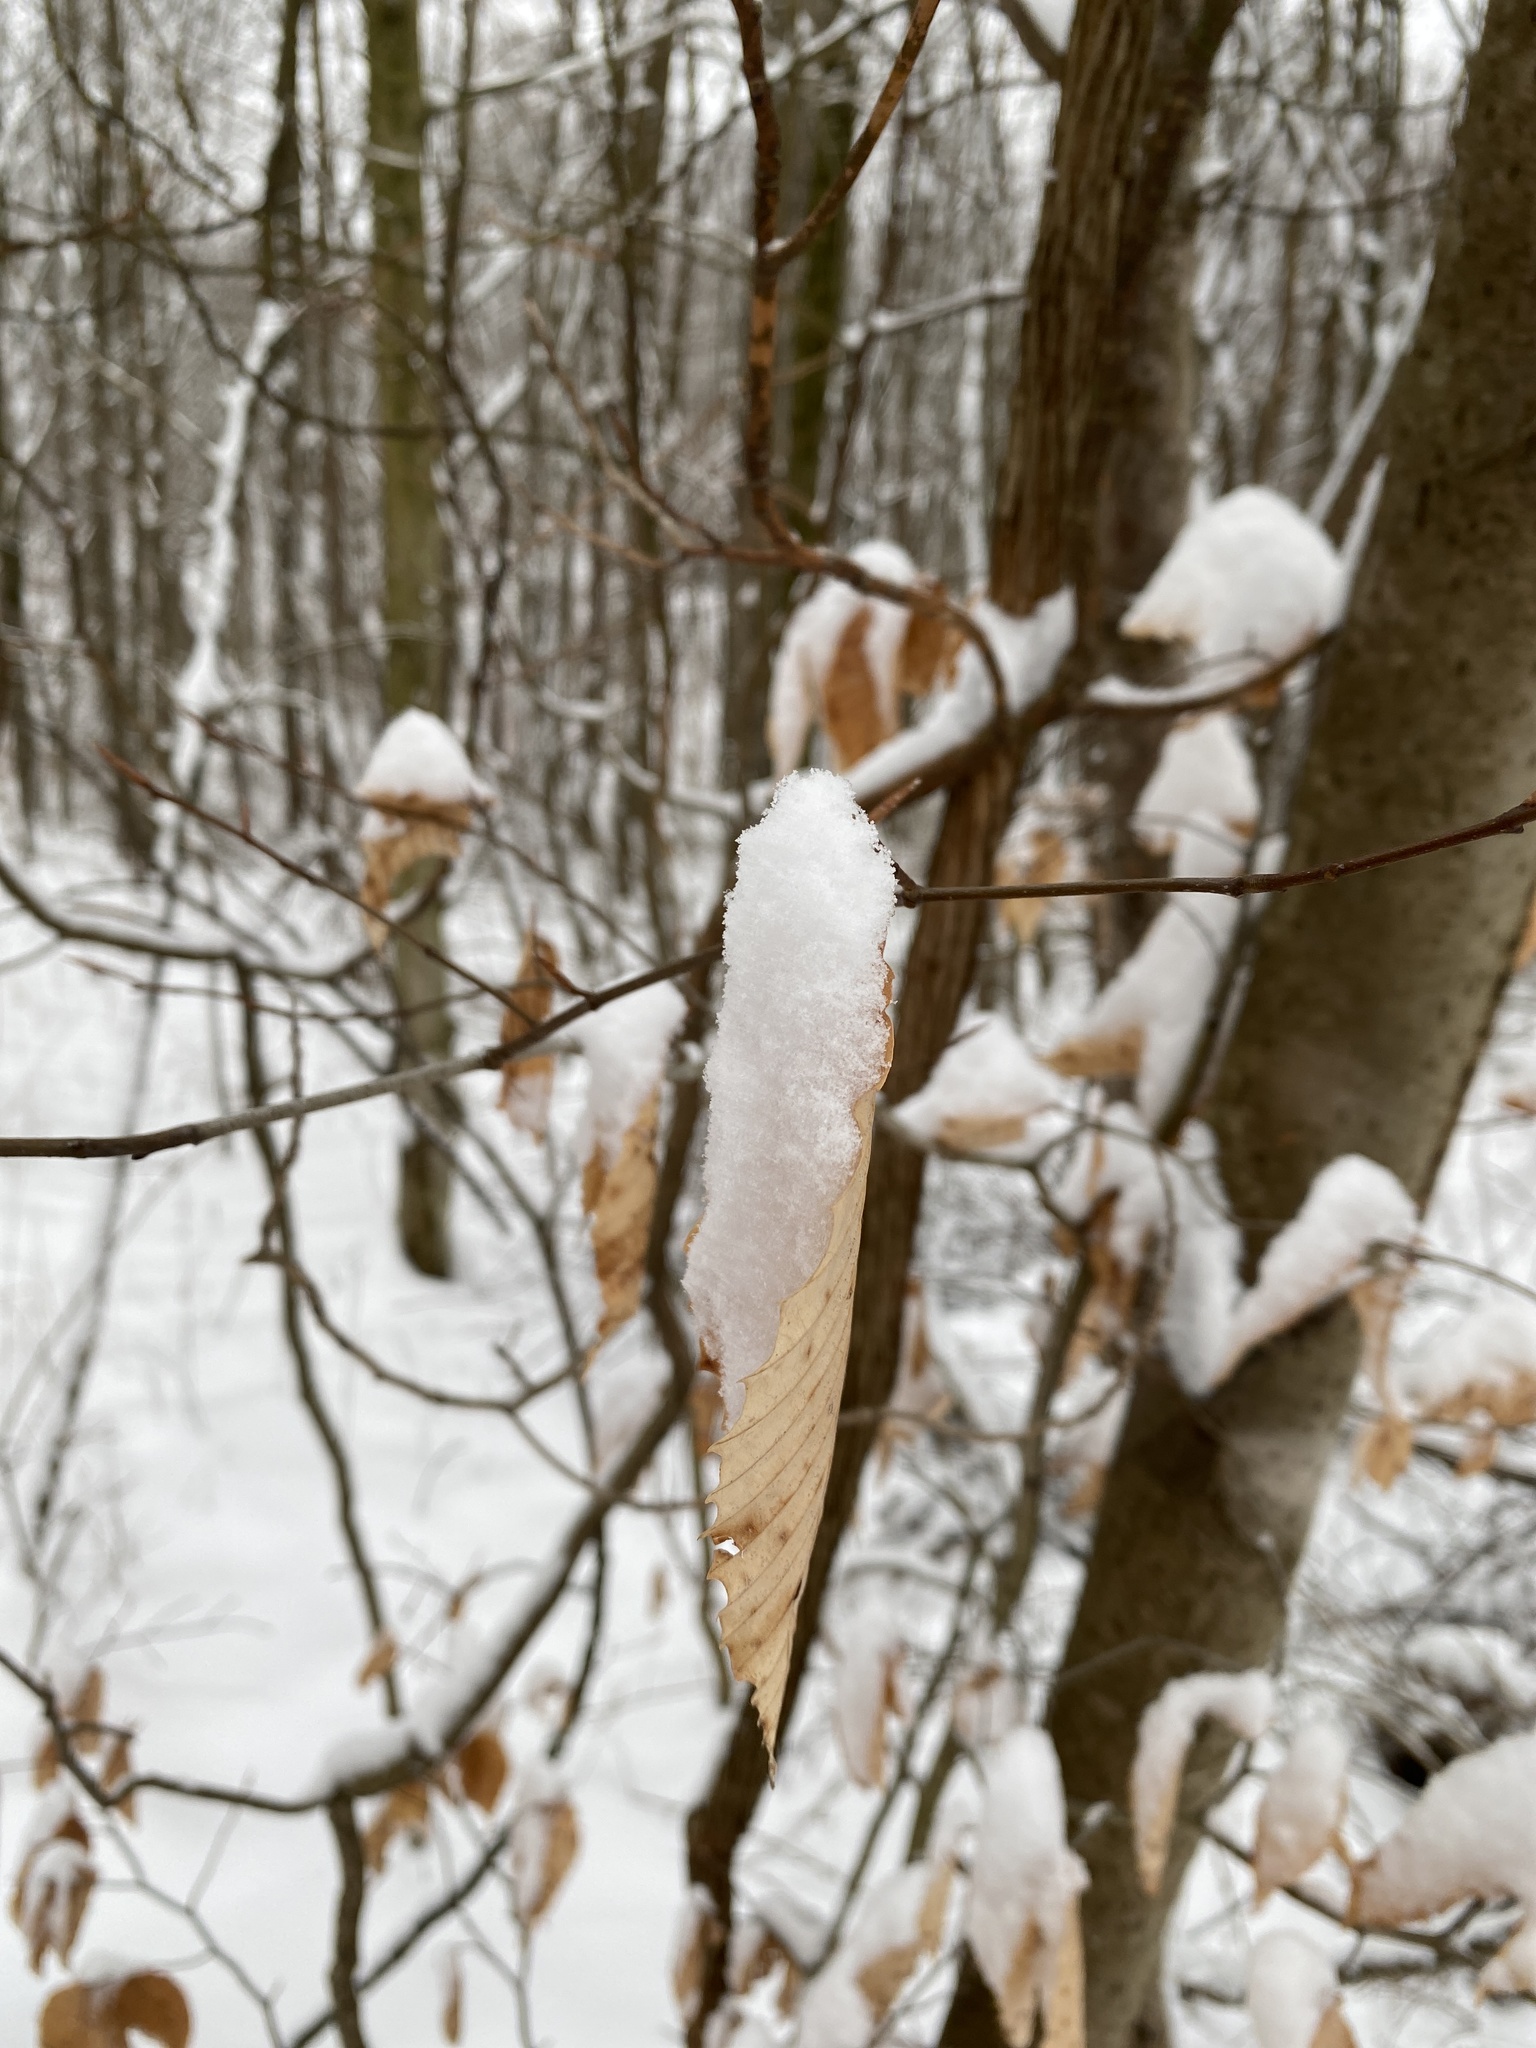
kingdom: Plantae
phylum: Tracheophyta
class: Magnoliopsida
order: Fagales
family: Fagaceae
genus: Fagus
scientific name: Fagus grandifolia
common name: American beech
